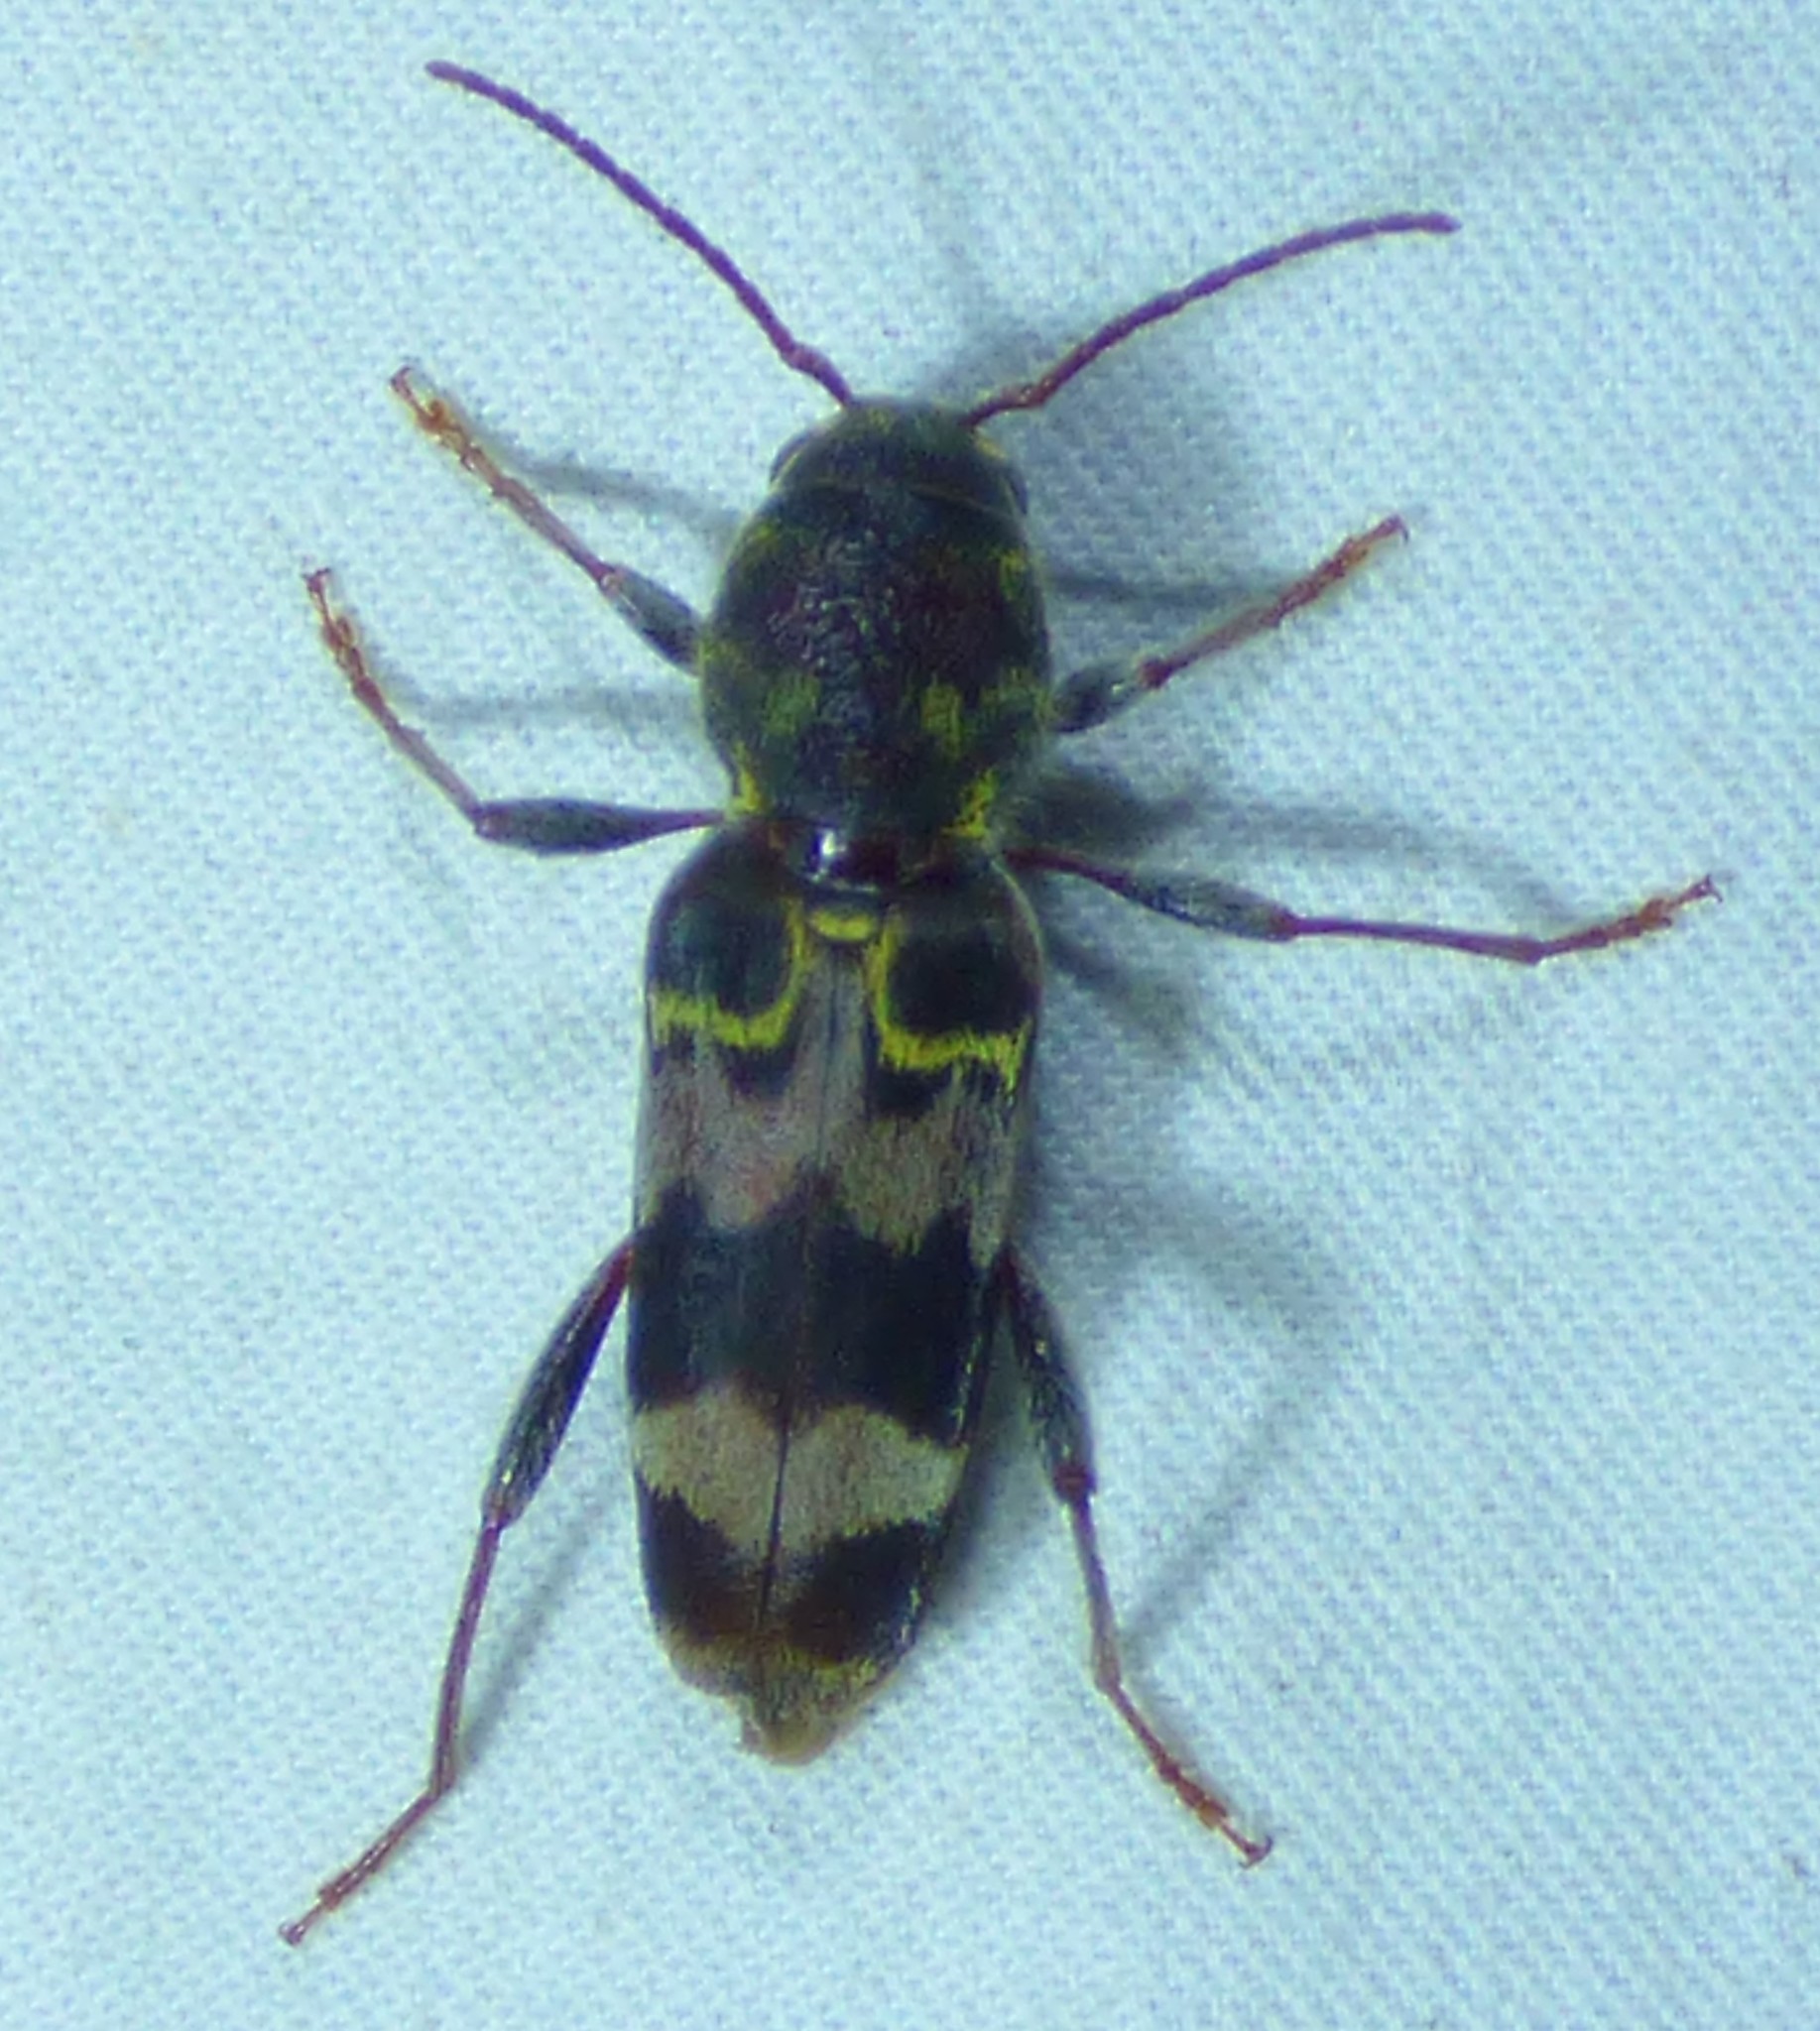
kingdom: Animalia
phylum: Arthropoda
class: Insecta
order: Coleoptera
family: Cerambycidae
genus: Xylotrechus
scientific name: Xylotrechus colonus
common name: Long-horned beetle
